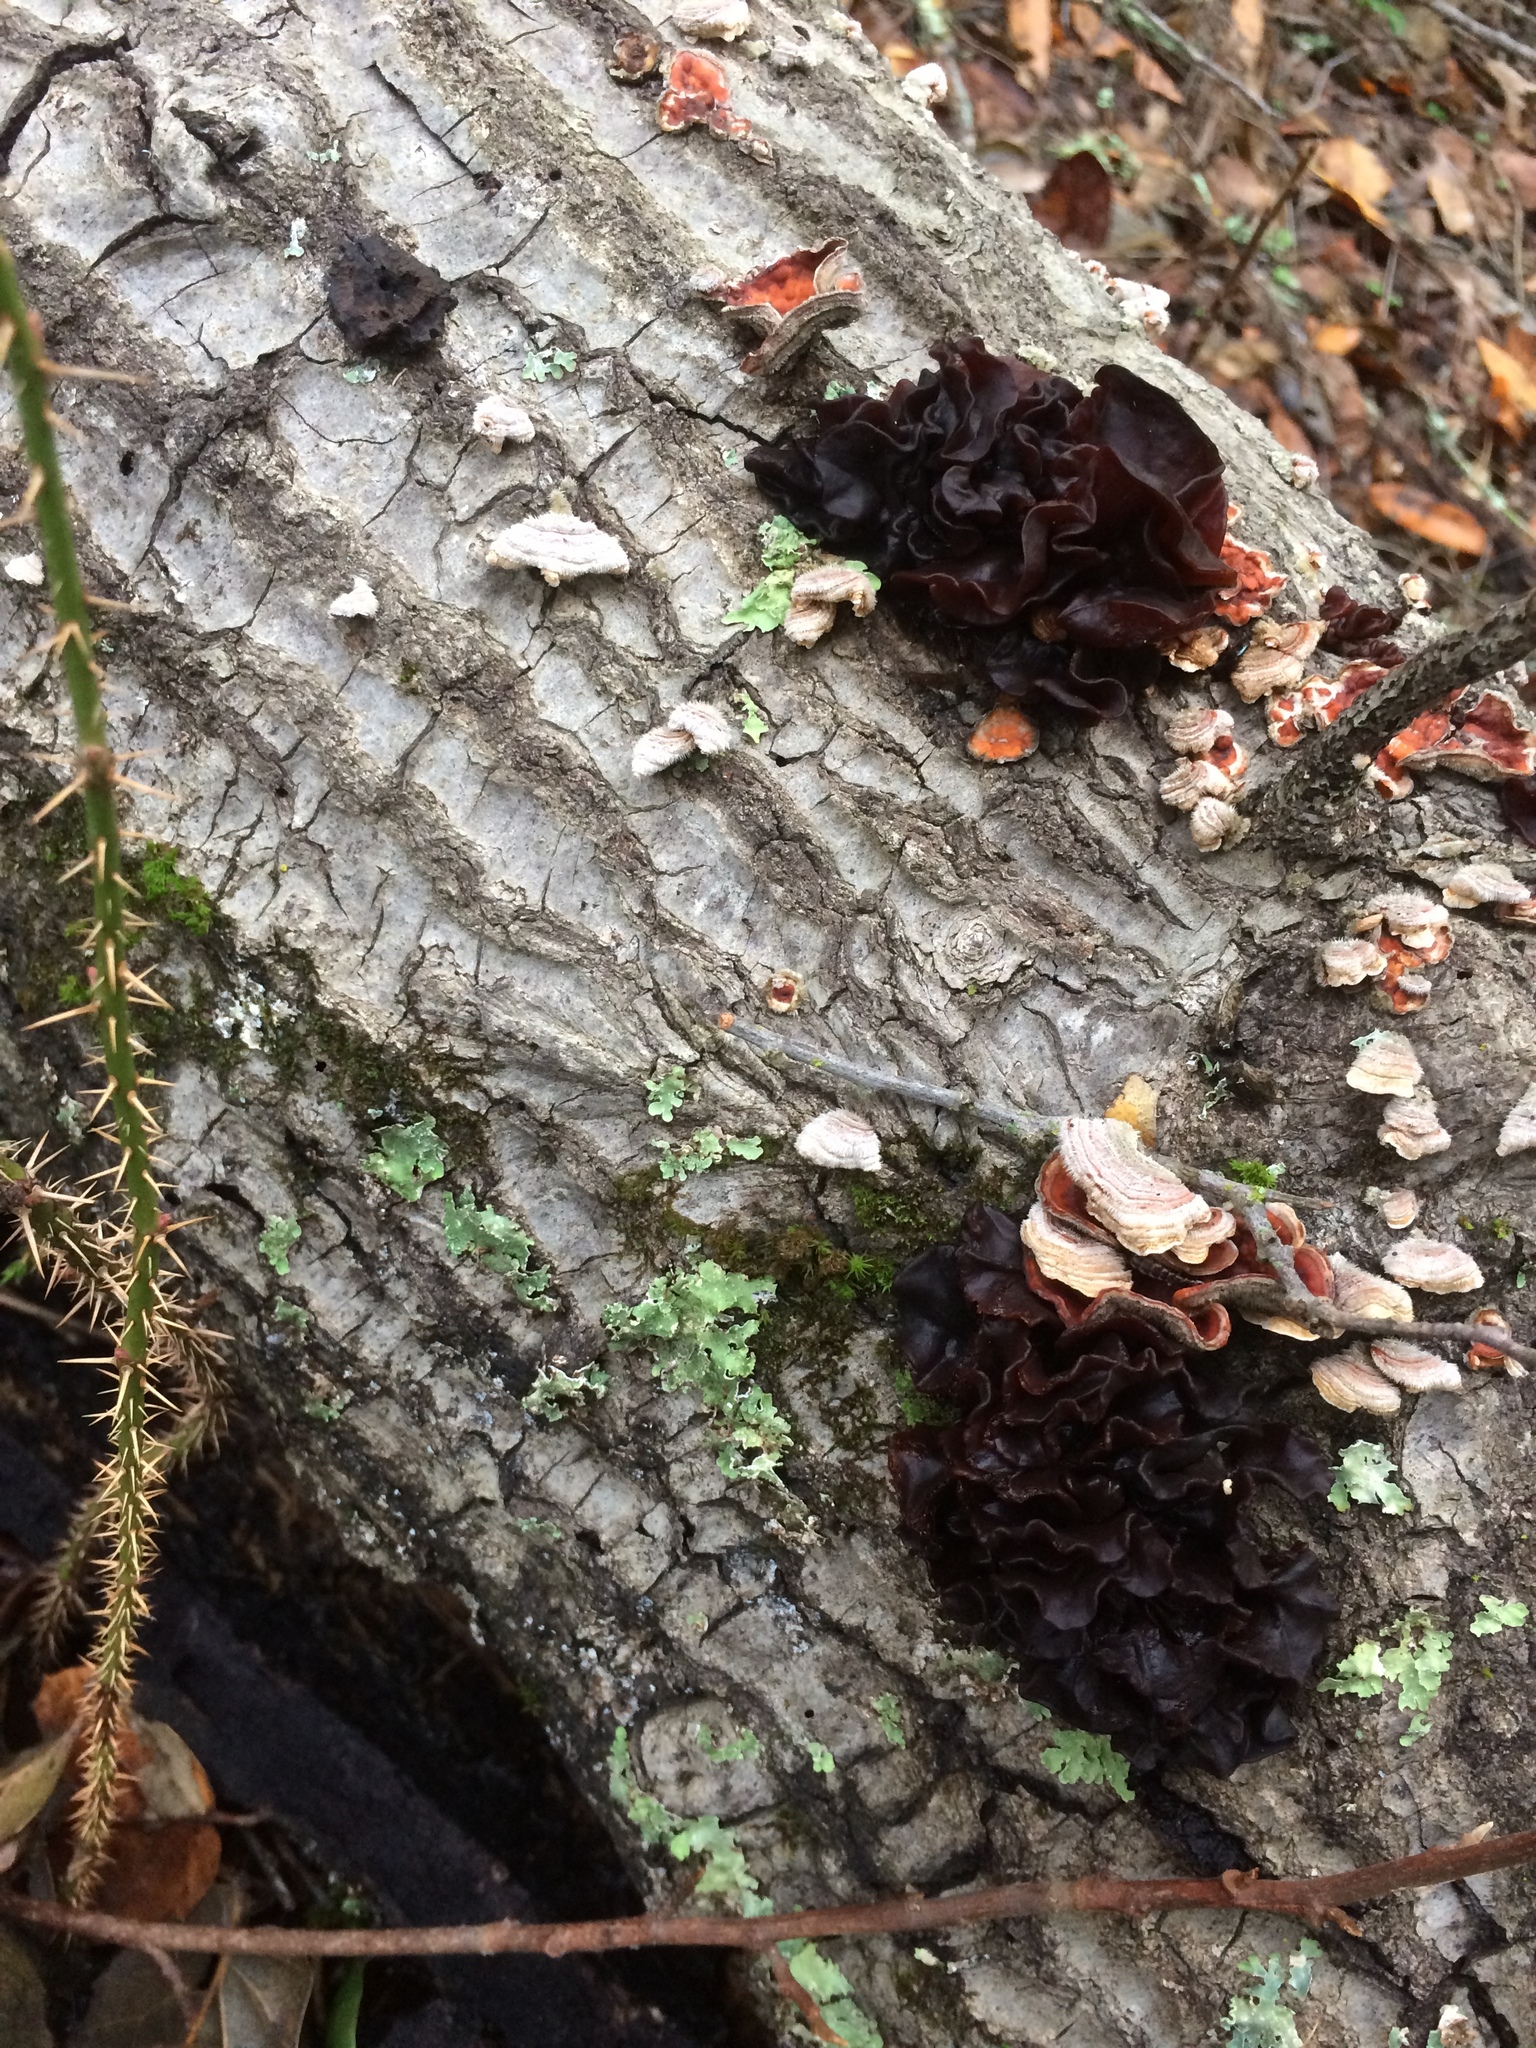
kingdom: Fungi
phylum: Basidiomycota
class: Tremellomycetes
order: Tremellales
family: Tremellaceae
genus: Phaeotremella
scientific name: Phaeotremella foliacea
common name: Leafy brain
